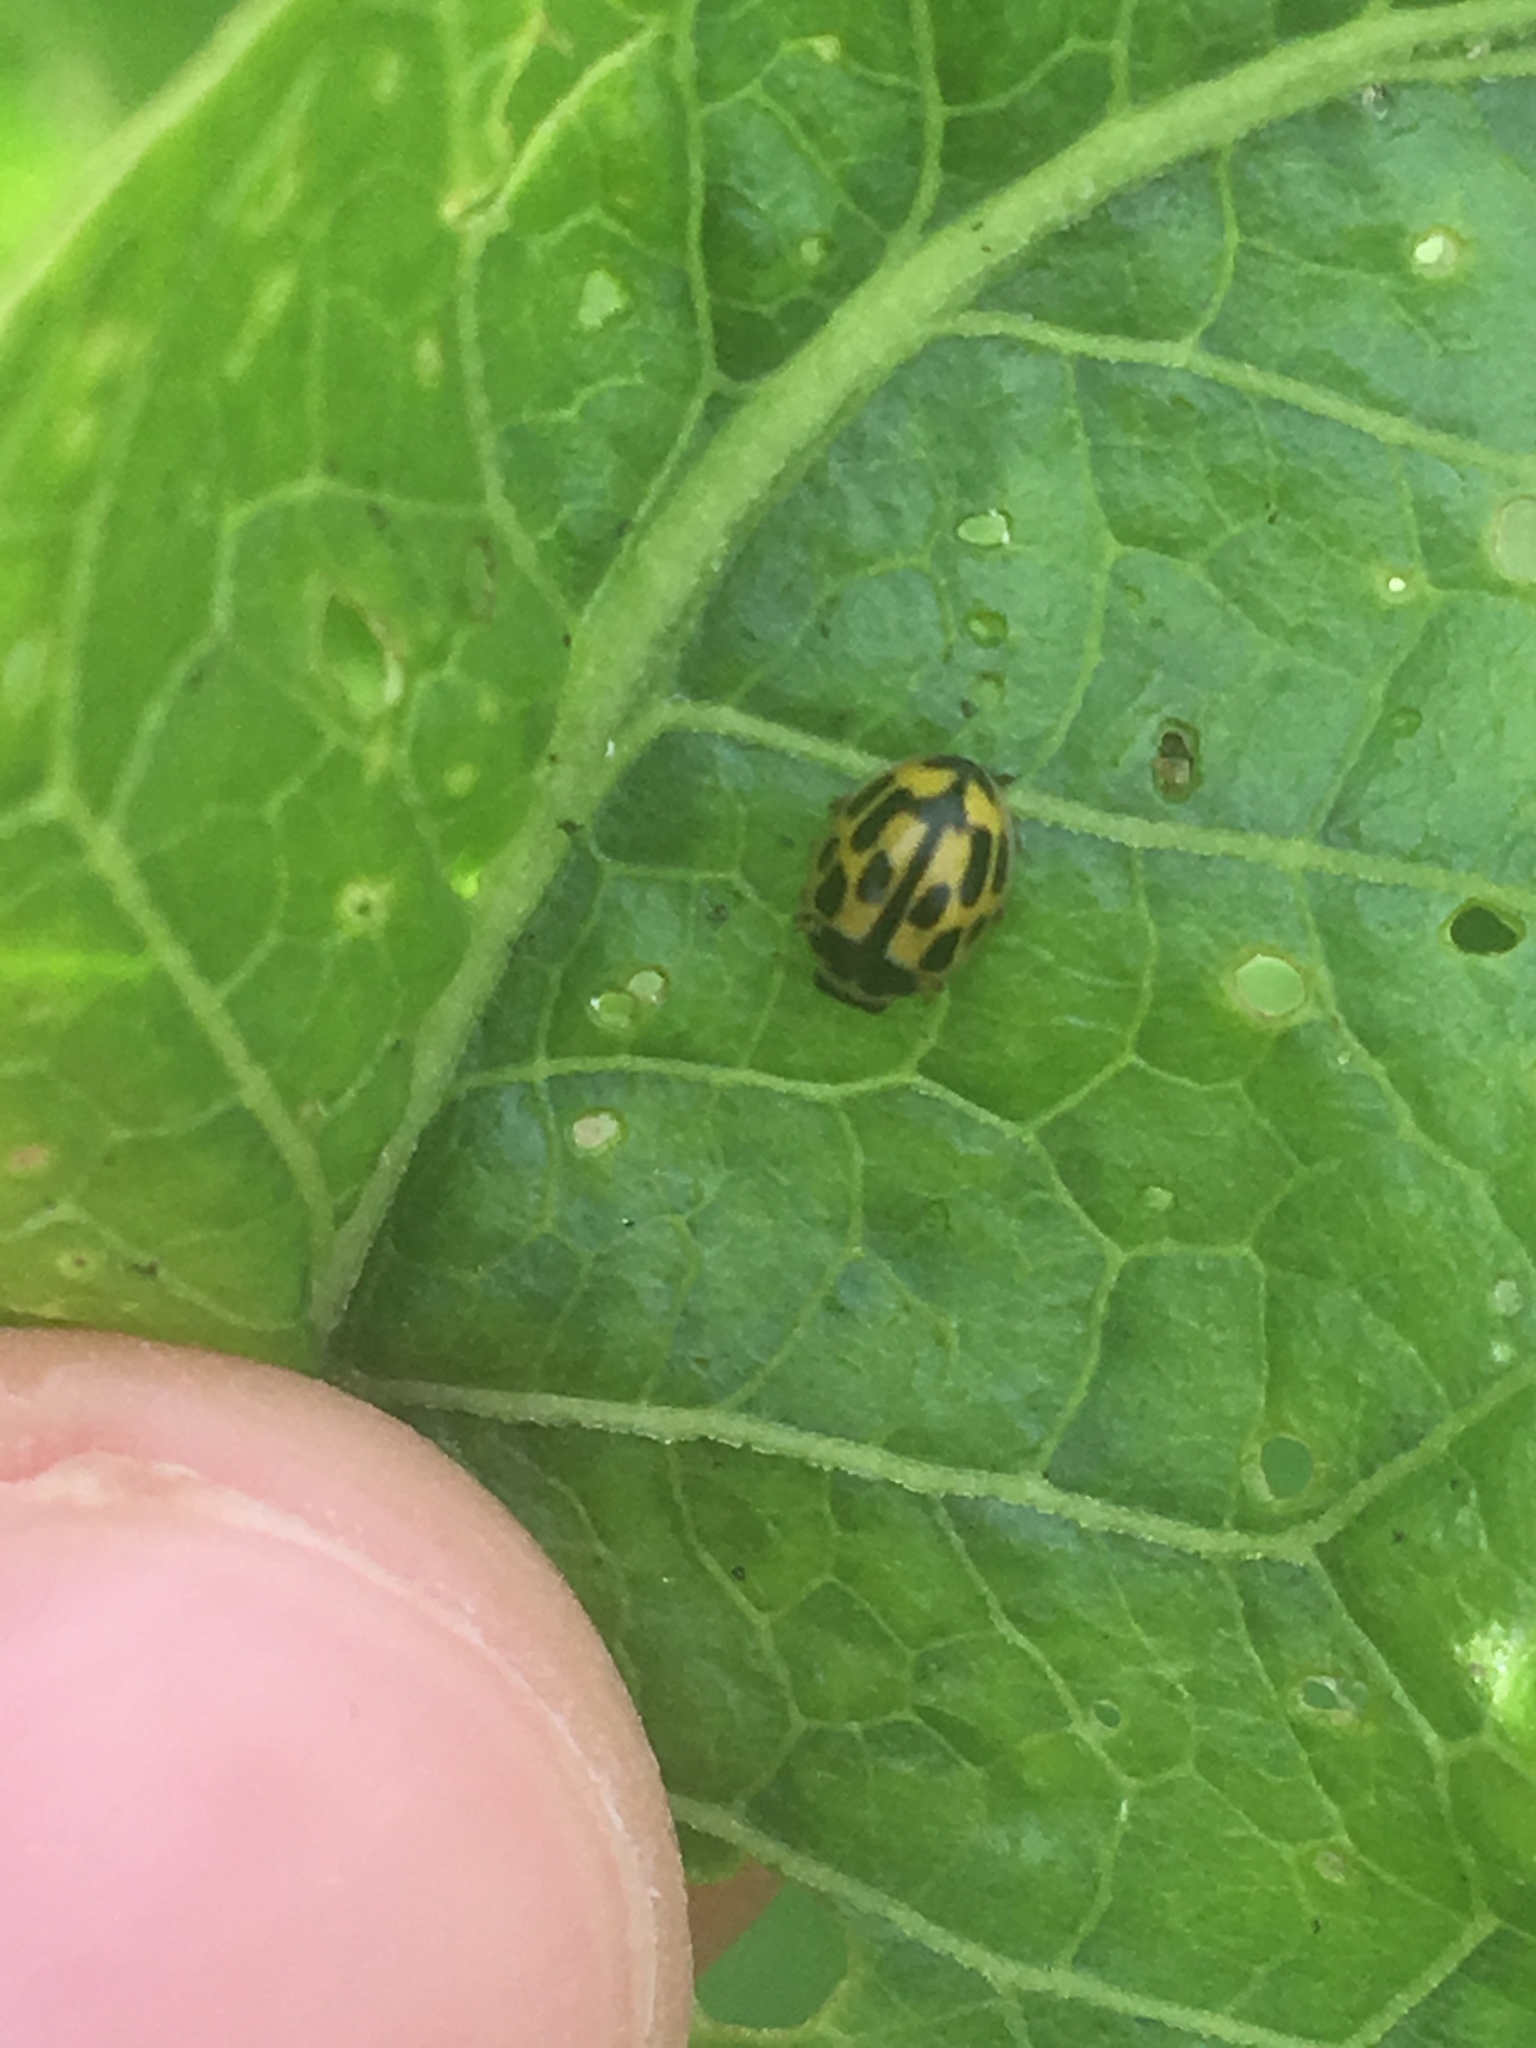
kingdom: Animalia
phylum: Arthropoda
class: Insecta
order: Coleoptera
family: Coccinellidae
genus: Propylaea
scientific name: Propylaea quatuordecimpunctata
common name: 14-spotted ladybird beetle
